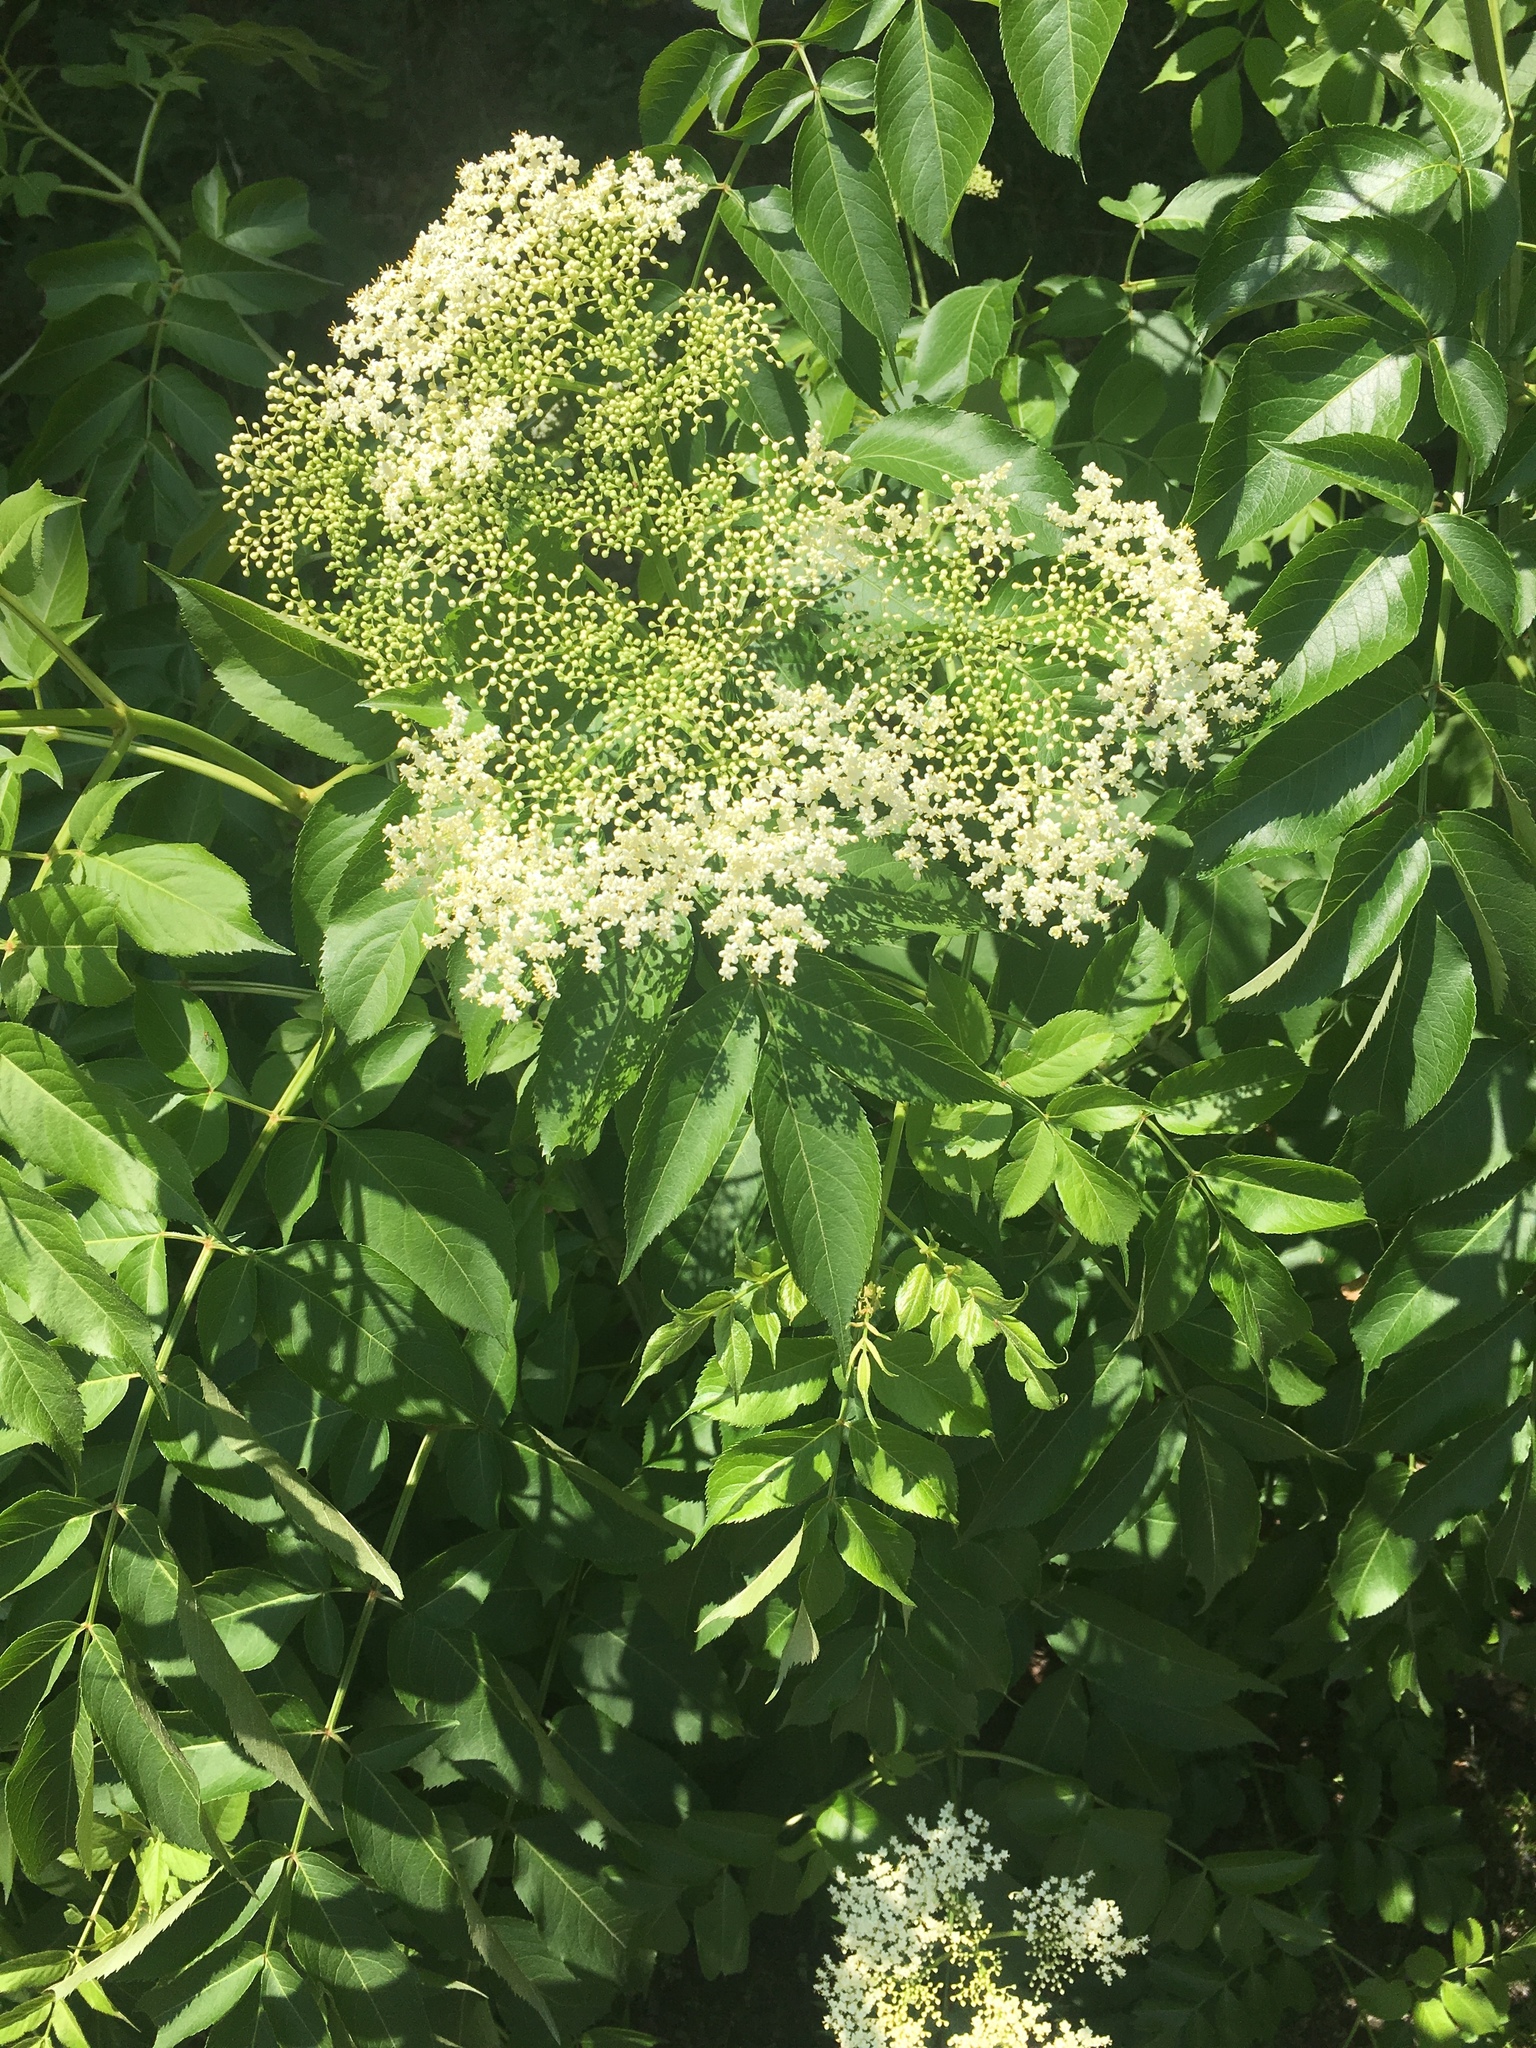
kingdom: Plantae
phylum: Tracheophyta
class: Magnoliopsida
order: Dipsacales
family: Viburnaceae
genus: Sambucus
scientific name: Sambucus canadensis
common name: American elder
